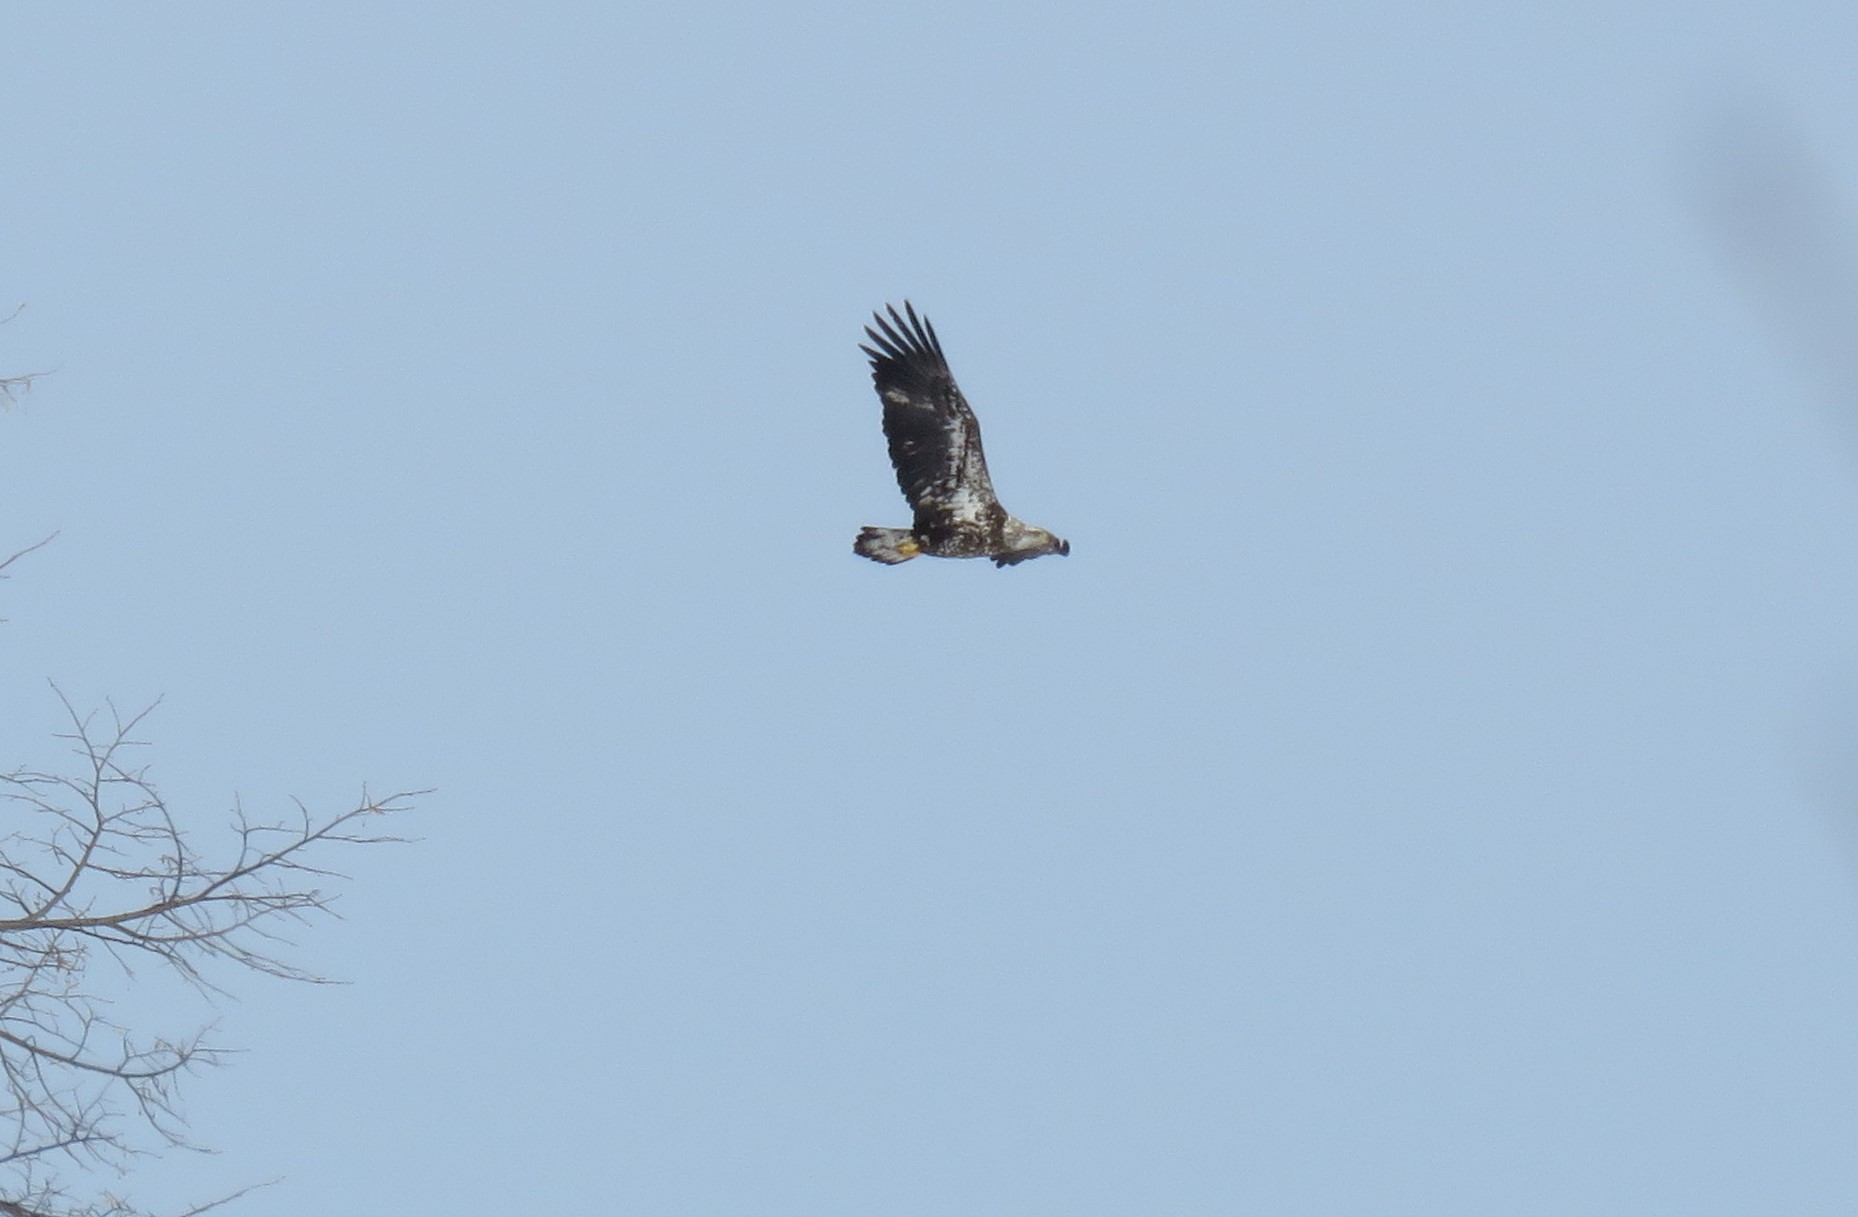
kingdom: Animalia
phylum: Chordata
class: Aves
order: Accipitriformes
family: Accipitridae
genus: Haliaeetus
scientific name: Haliaeetus leucocephalus
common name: Bald eagle
